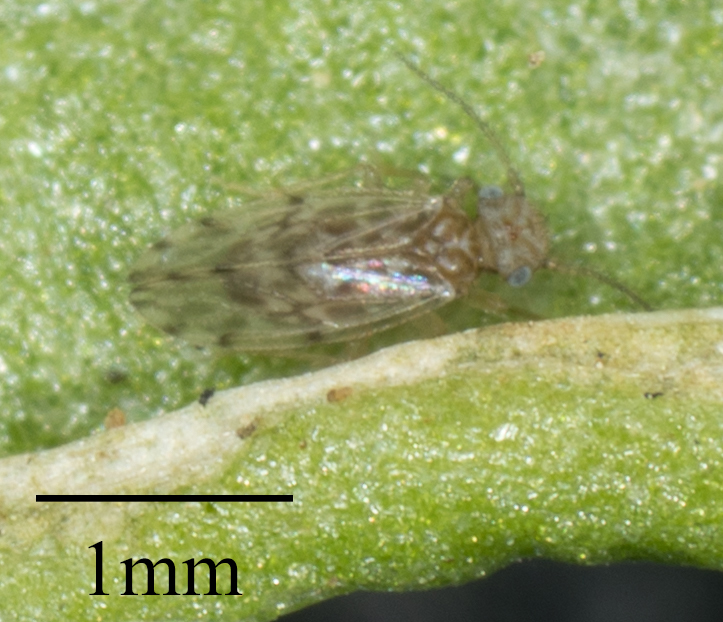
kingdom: Animalia
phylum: Arthropoda
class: Insecta
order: Psocodea
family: Ectopsocidae
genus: Ectopsocus
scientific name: Ectopsocus strauchi
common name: Medium-sized bark louse
